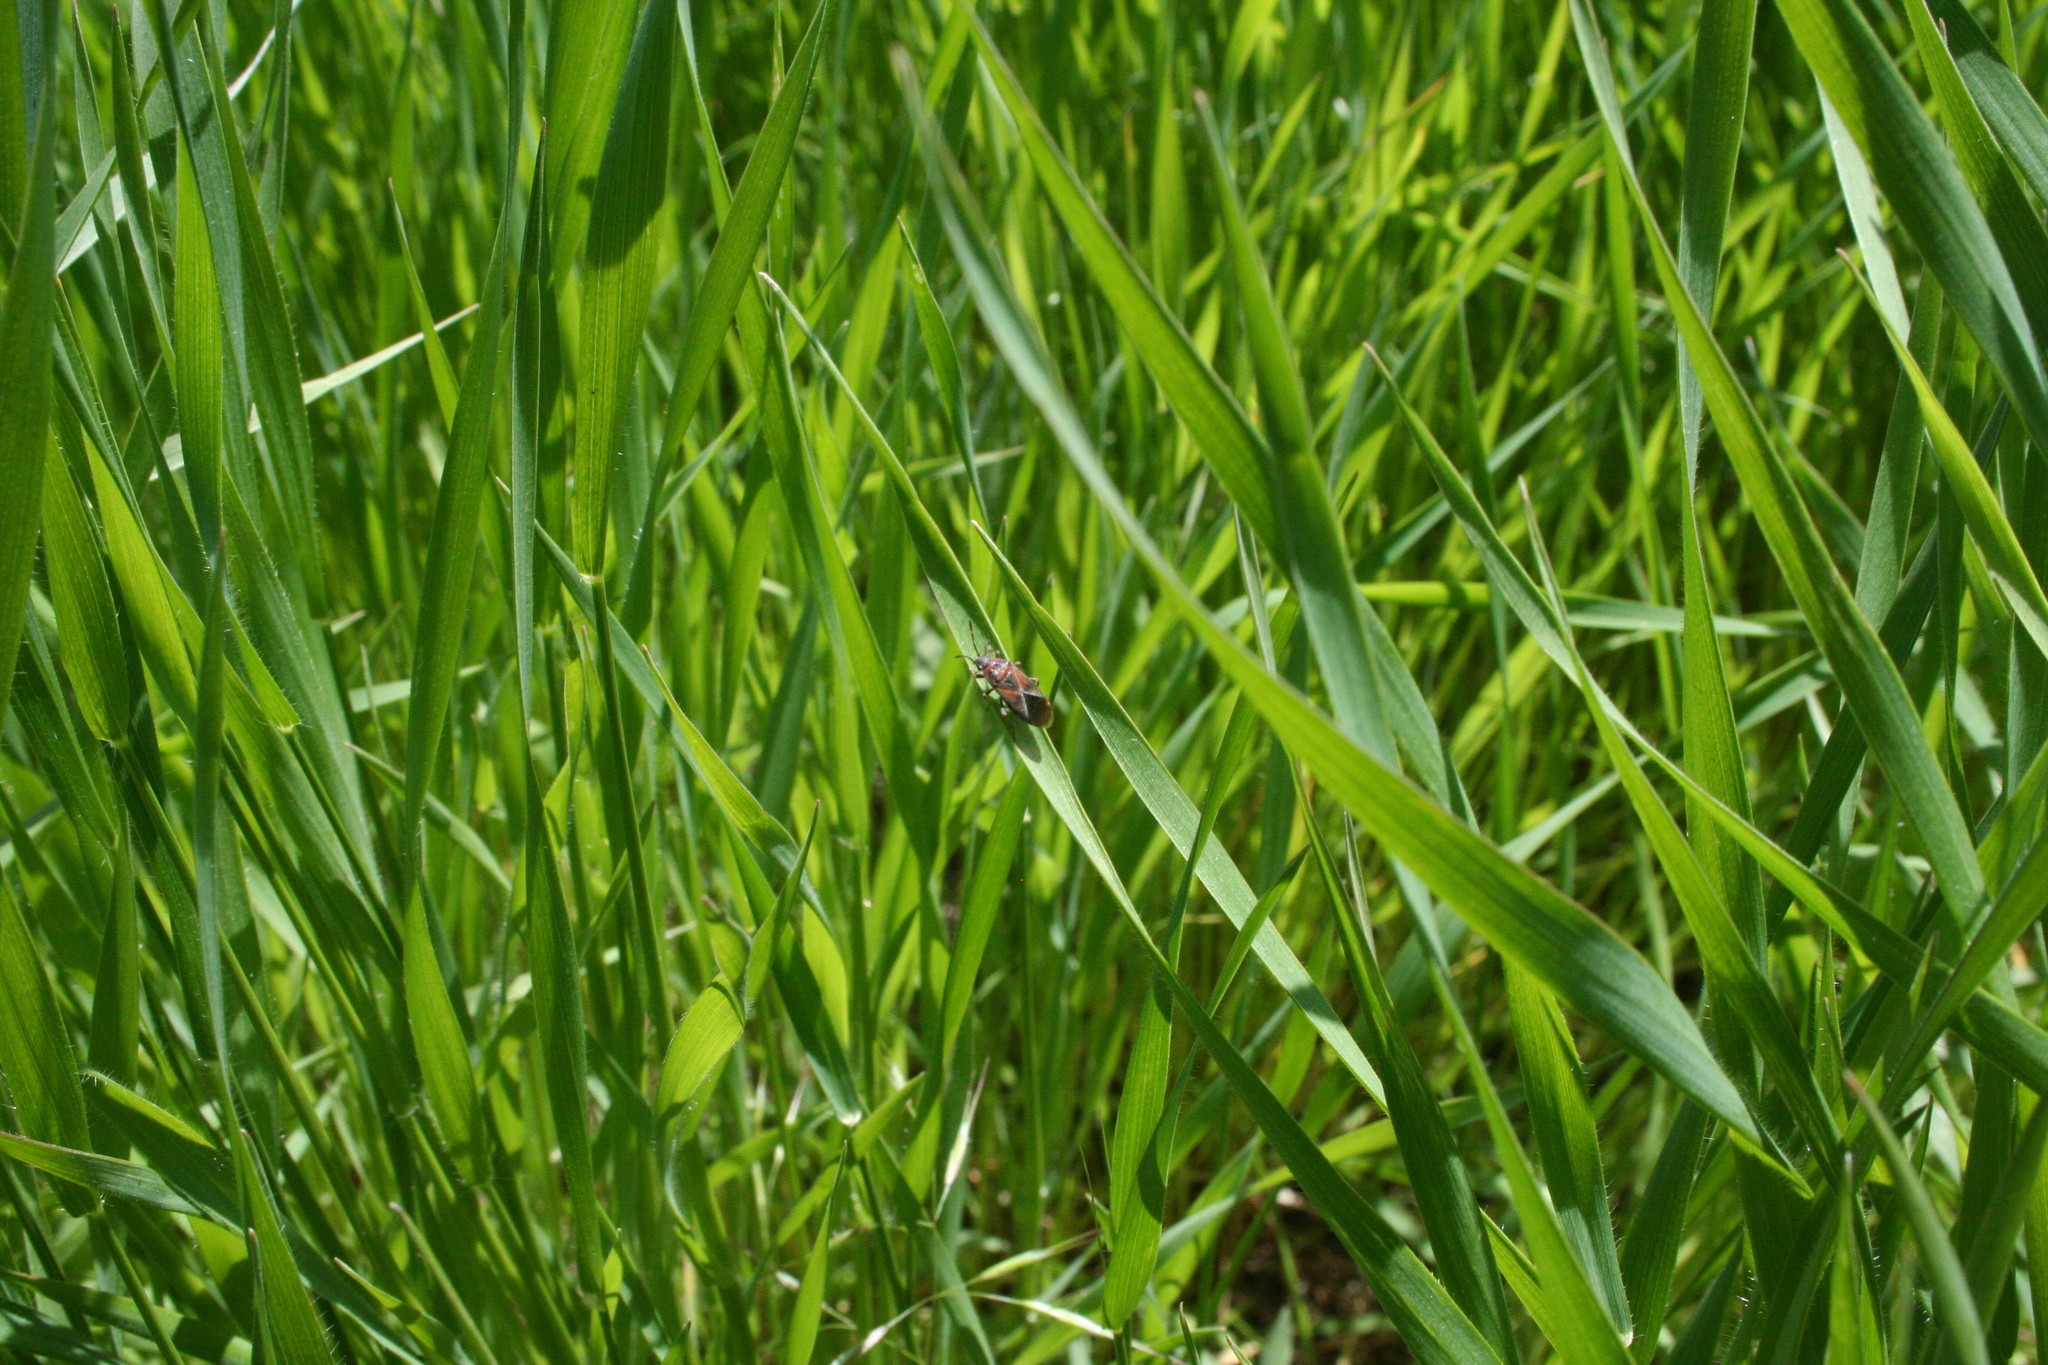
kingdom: Animalia
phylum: Arthropoda
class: Insecta
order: Hemiptera
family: Lygaeidae
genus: Arocatus
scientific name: Arocatus melanocephalus
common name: Lygaeid bug
